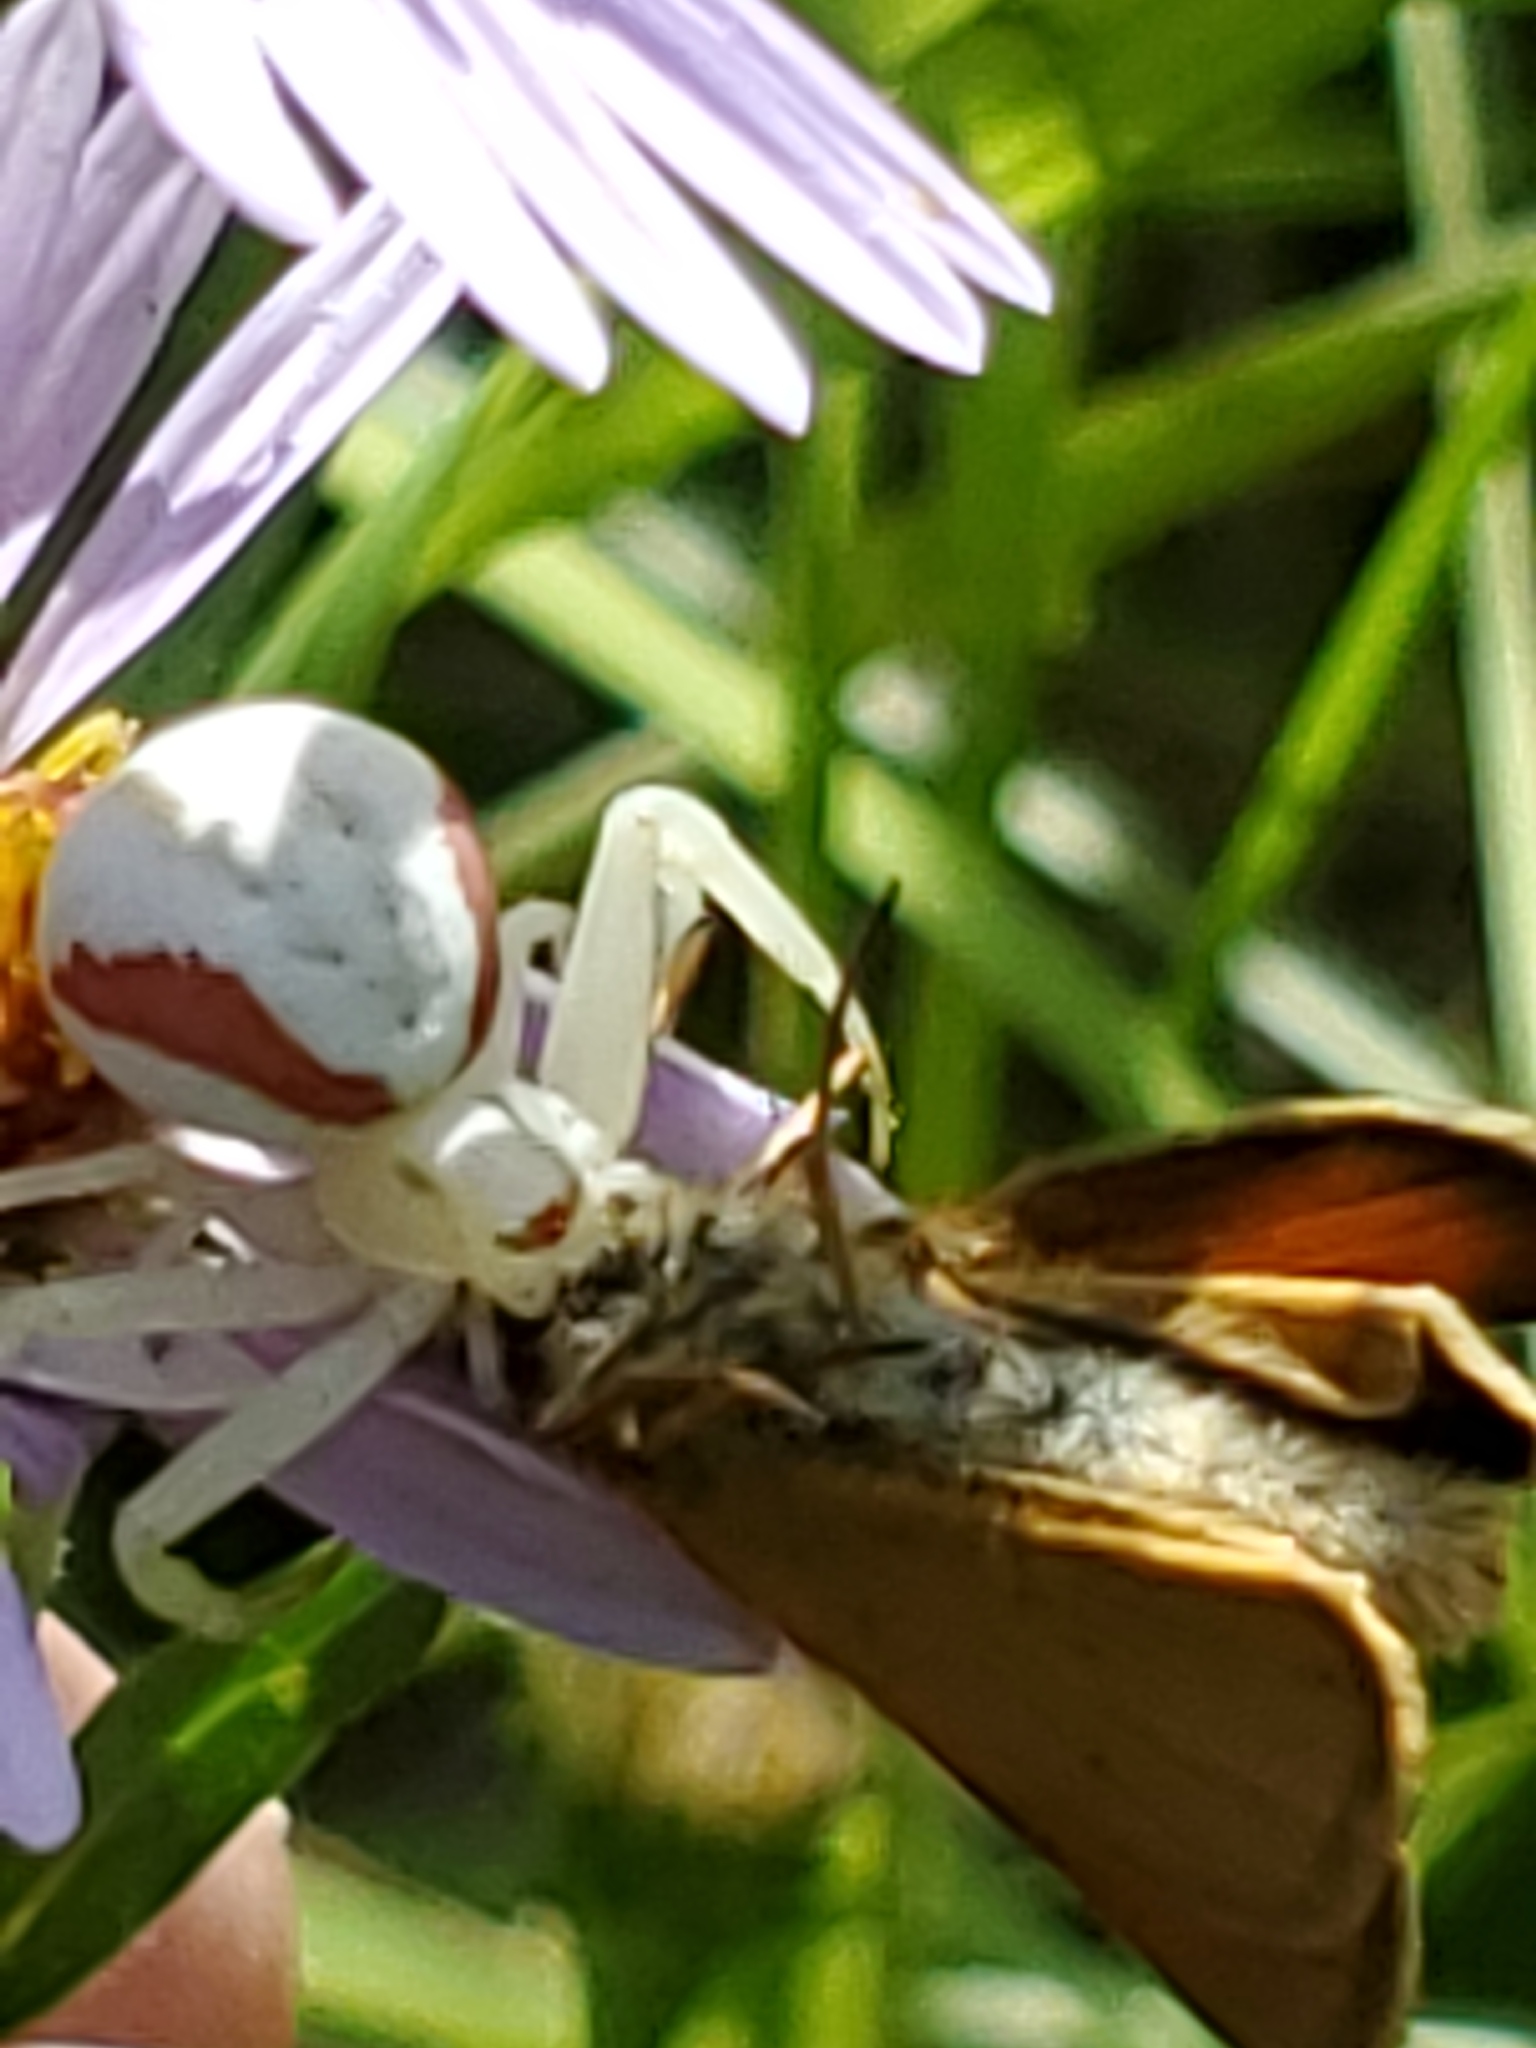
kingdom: Animalia
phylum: Arthropoda
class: Arachnida
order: Araneae
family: Thomisidae
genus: Misumena
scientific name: Misumena vatia
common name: Goldenrod crab spider
